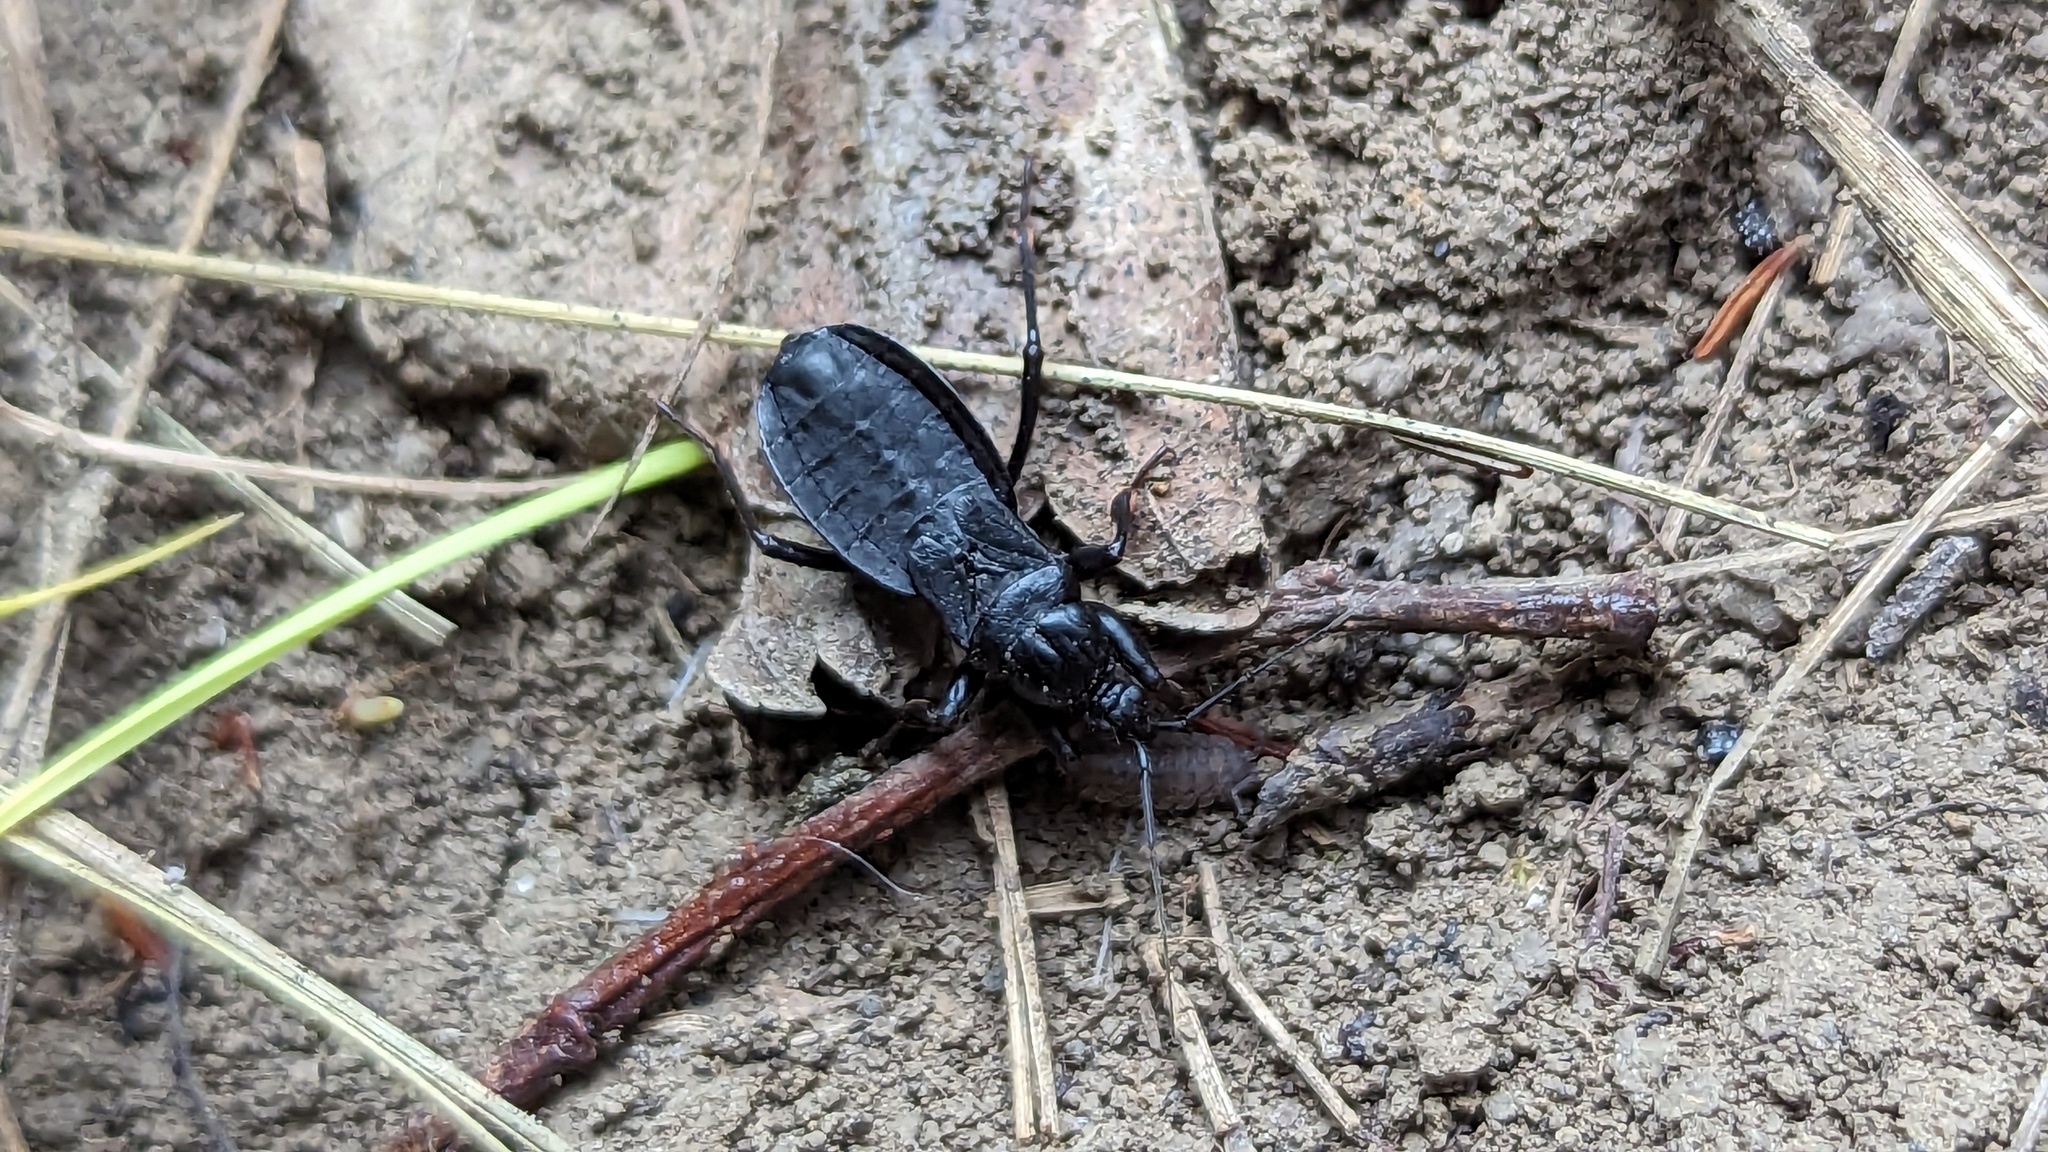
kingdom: Animalia
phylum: Arthropoda
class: Insecta
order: Hemiptera
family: Reduviidae
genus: Melanolestes
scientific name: Melanolestes picipes
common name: Assassin bug
